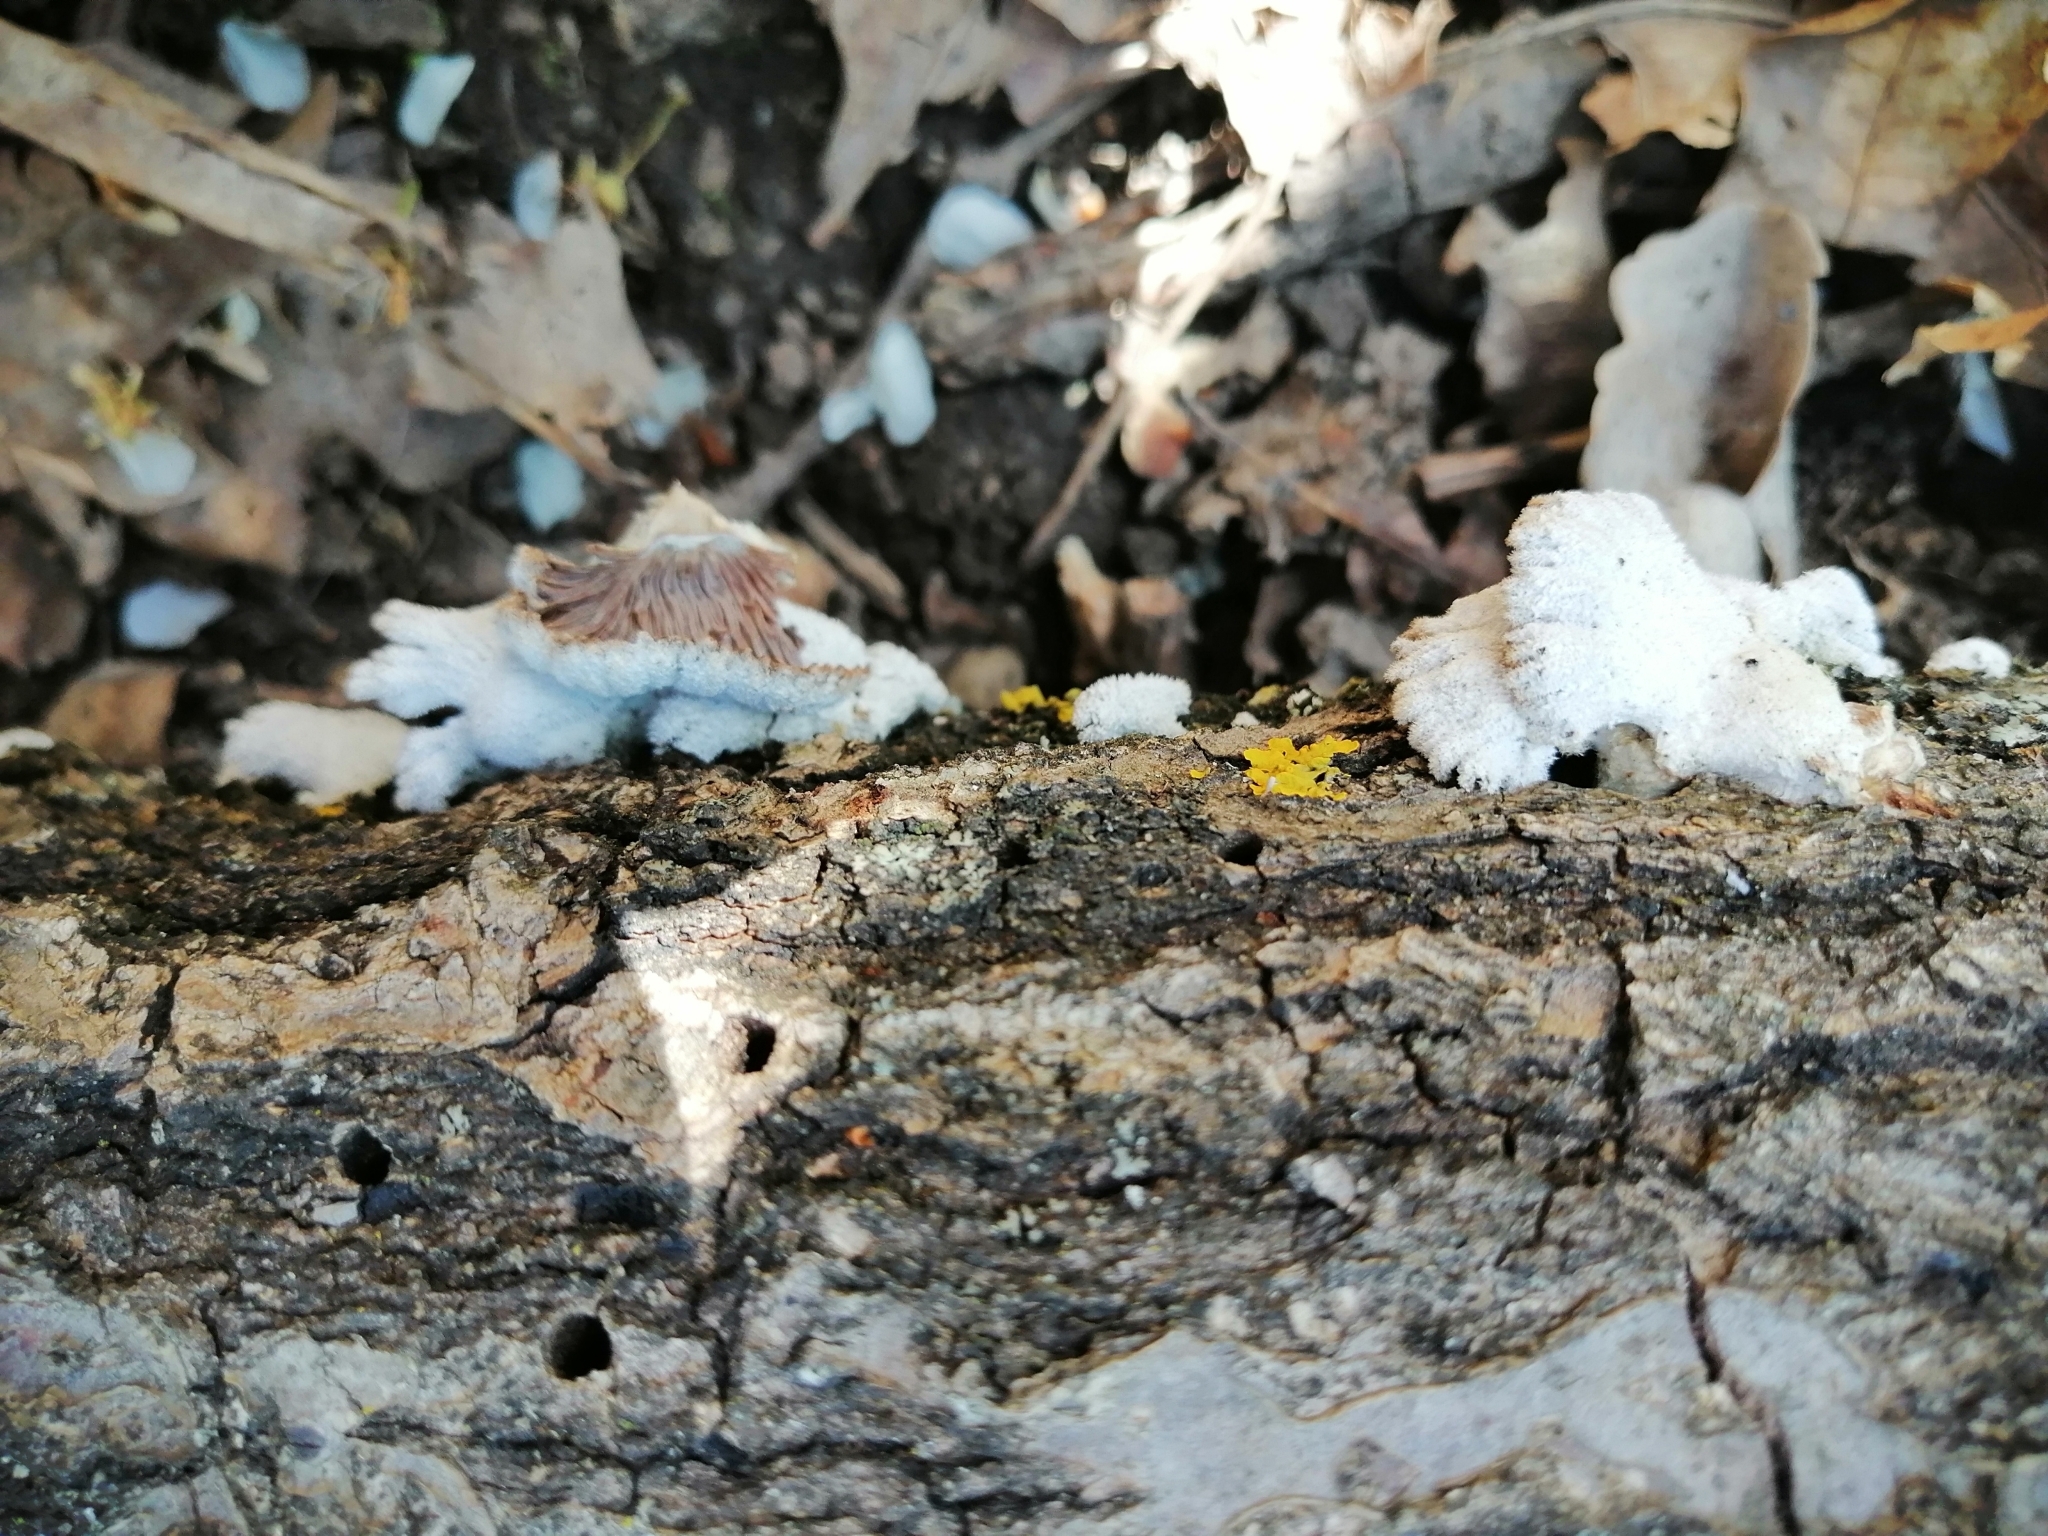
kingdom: Fungi
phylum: Basidiomycota
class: Agaricomycetes
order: Agaricales
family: Schizophyllaceae
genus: Schizophyllum
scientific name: Schizophyllum commune
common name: Common porecrust
